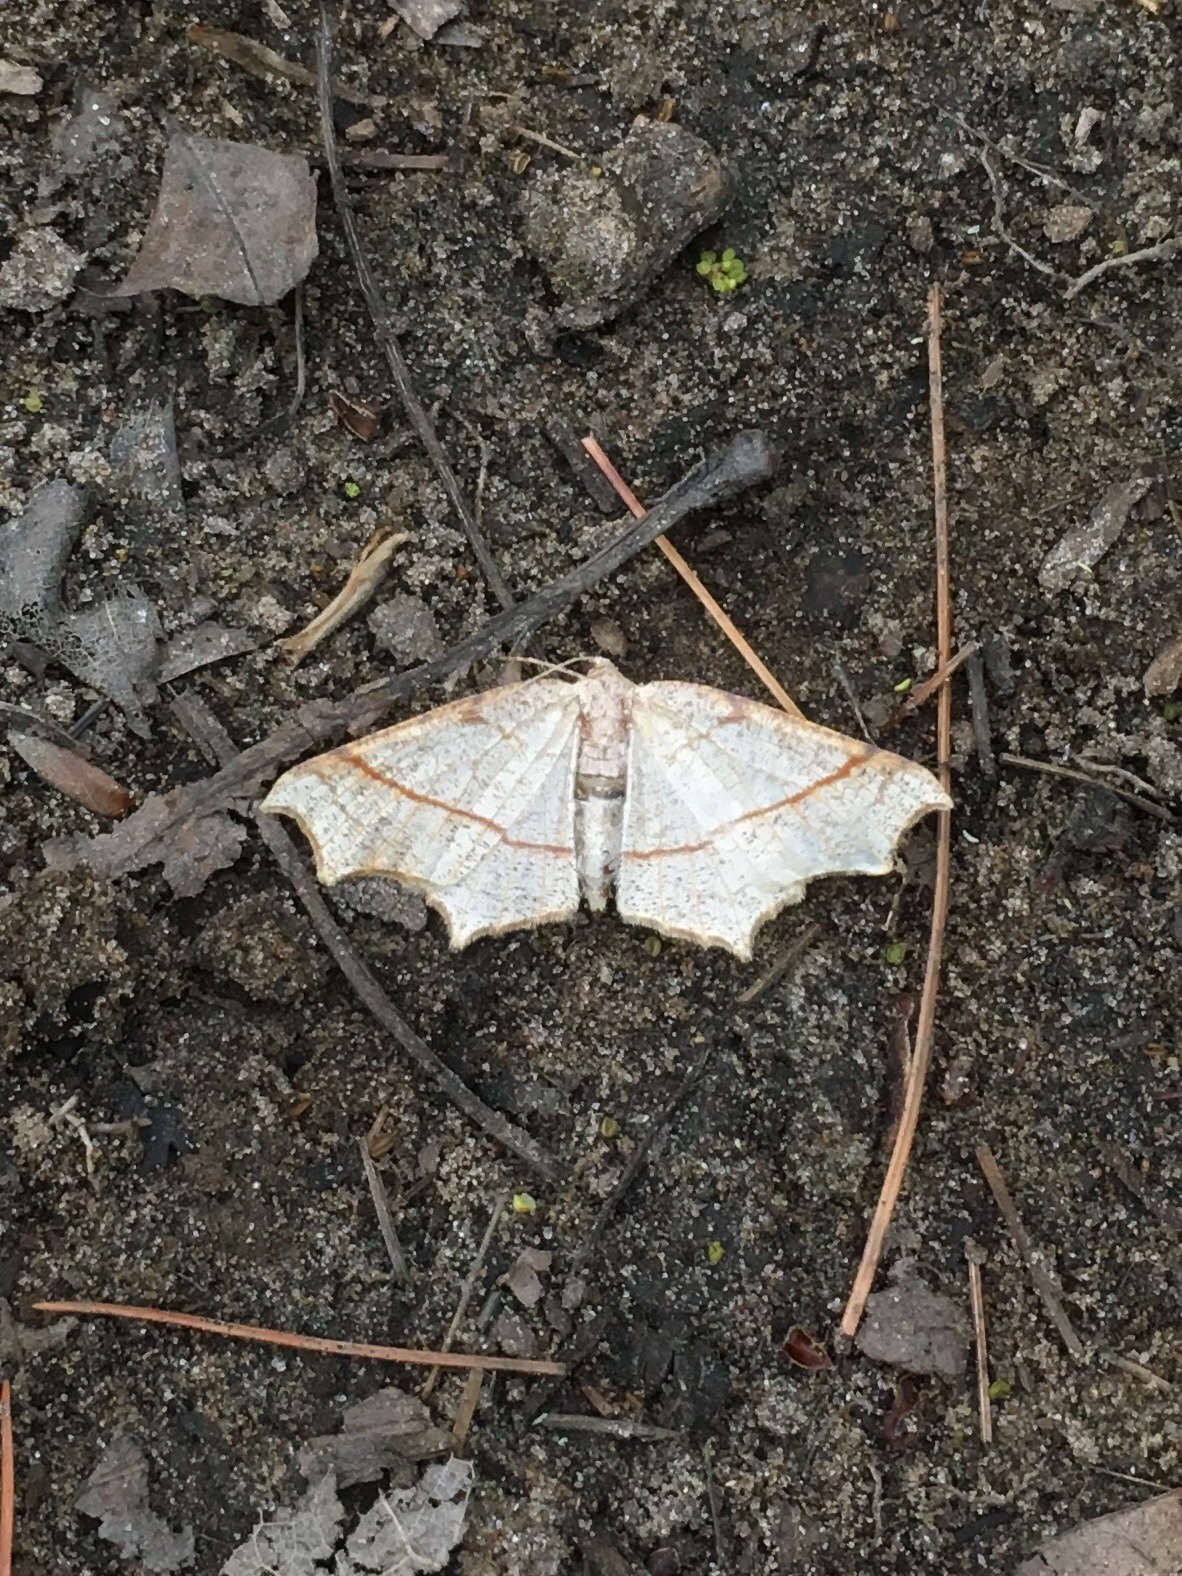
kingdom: Animalia
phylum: Arthropoda
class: Insecta
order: Lepidoptera
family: Geometridae
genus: Besma
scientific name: Besma quercivoraria
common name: Oak besma
